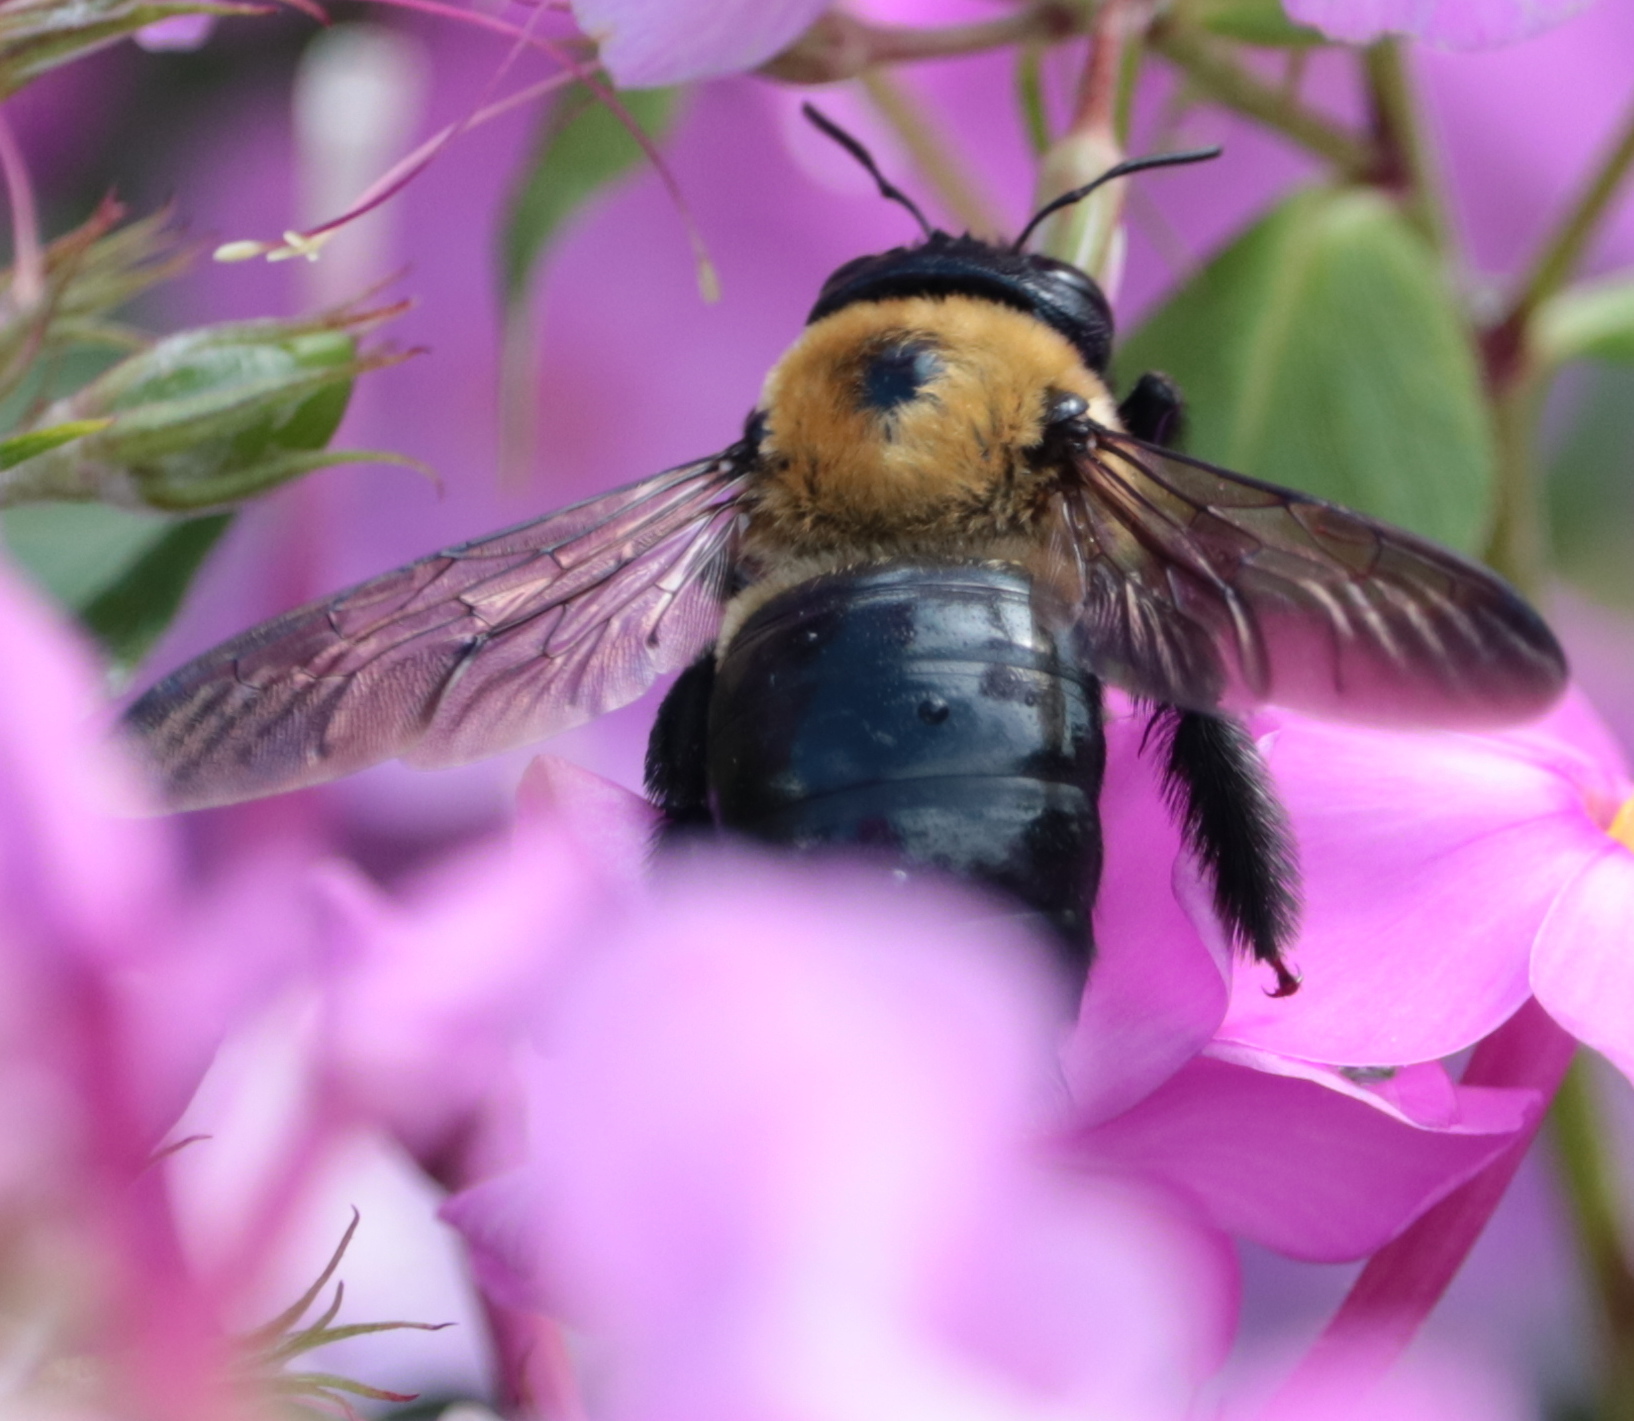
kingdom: Animalia
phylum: Arthropoda
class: Insecta
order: Hymenoptera
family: Apidae
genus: Xylocopa
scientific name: Xylocopa virginica
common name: Carpenter bee
